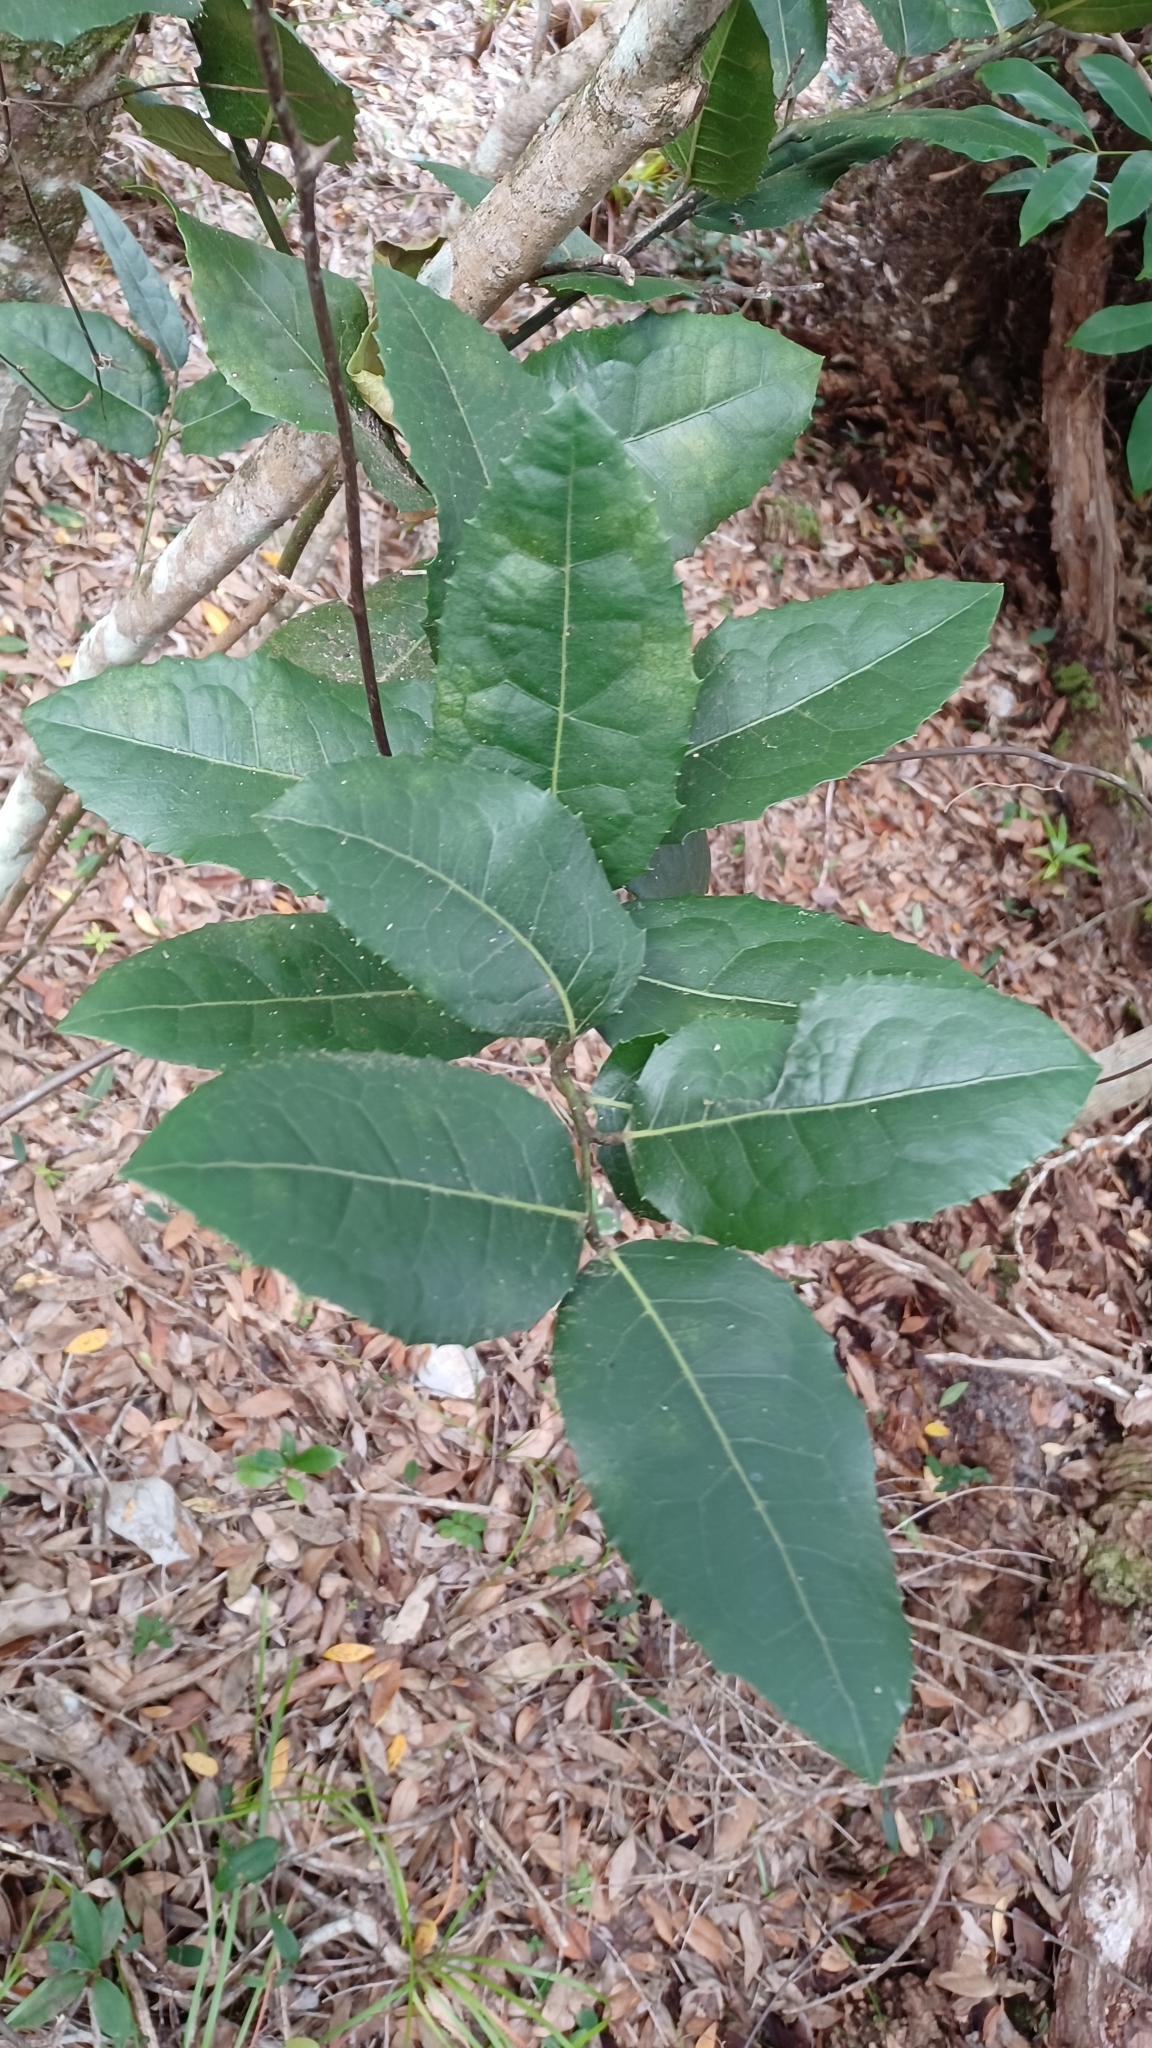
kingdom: Plantae
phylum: Tracheophyta
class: Magnoliopsida
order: Laurales
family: Monimiaceae
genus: Wilkiea
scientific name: Wilkiea hugeliana
